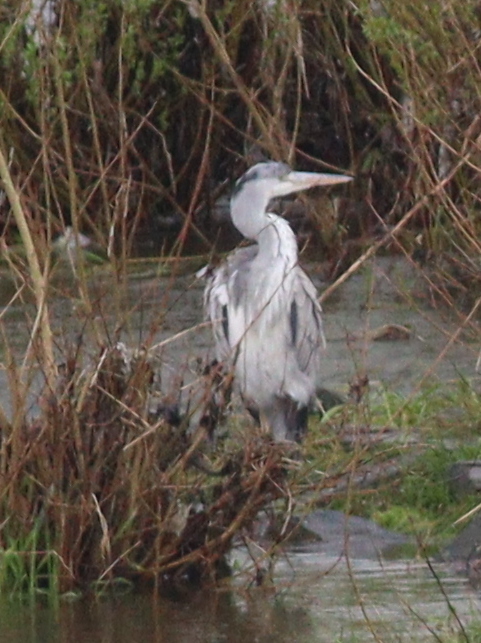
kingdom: Animalia
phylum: Chordata
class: Aves
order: Pelecaniformes
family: Ardeidae
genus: Ardea
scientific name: Ardea cinerea
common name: Grey heron
